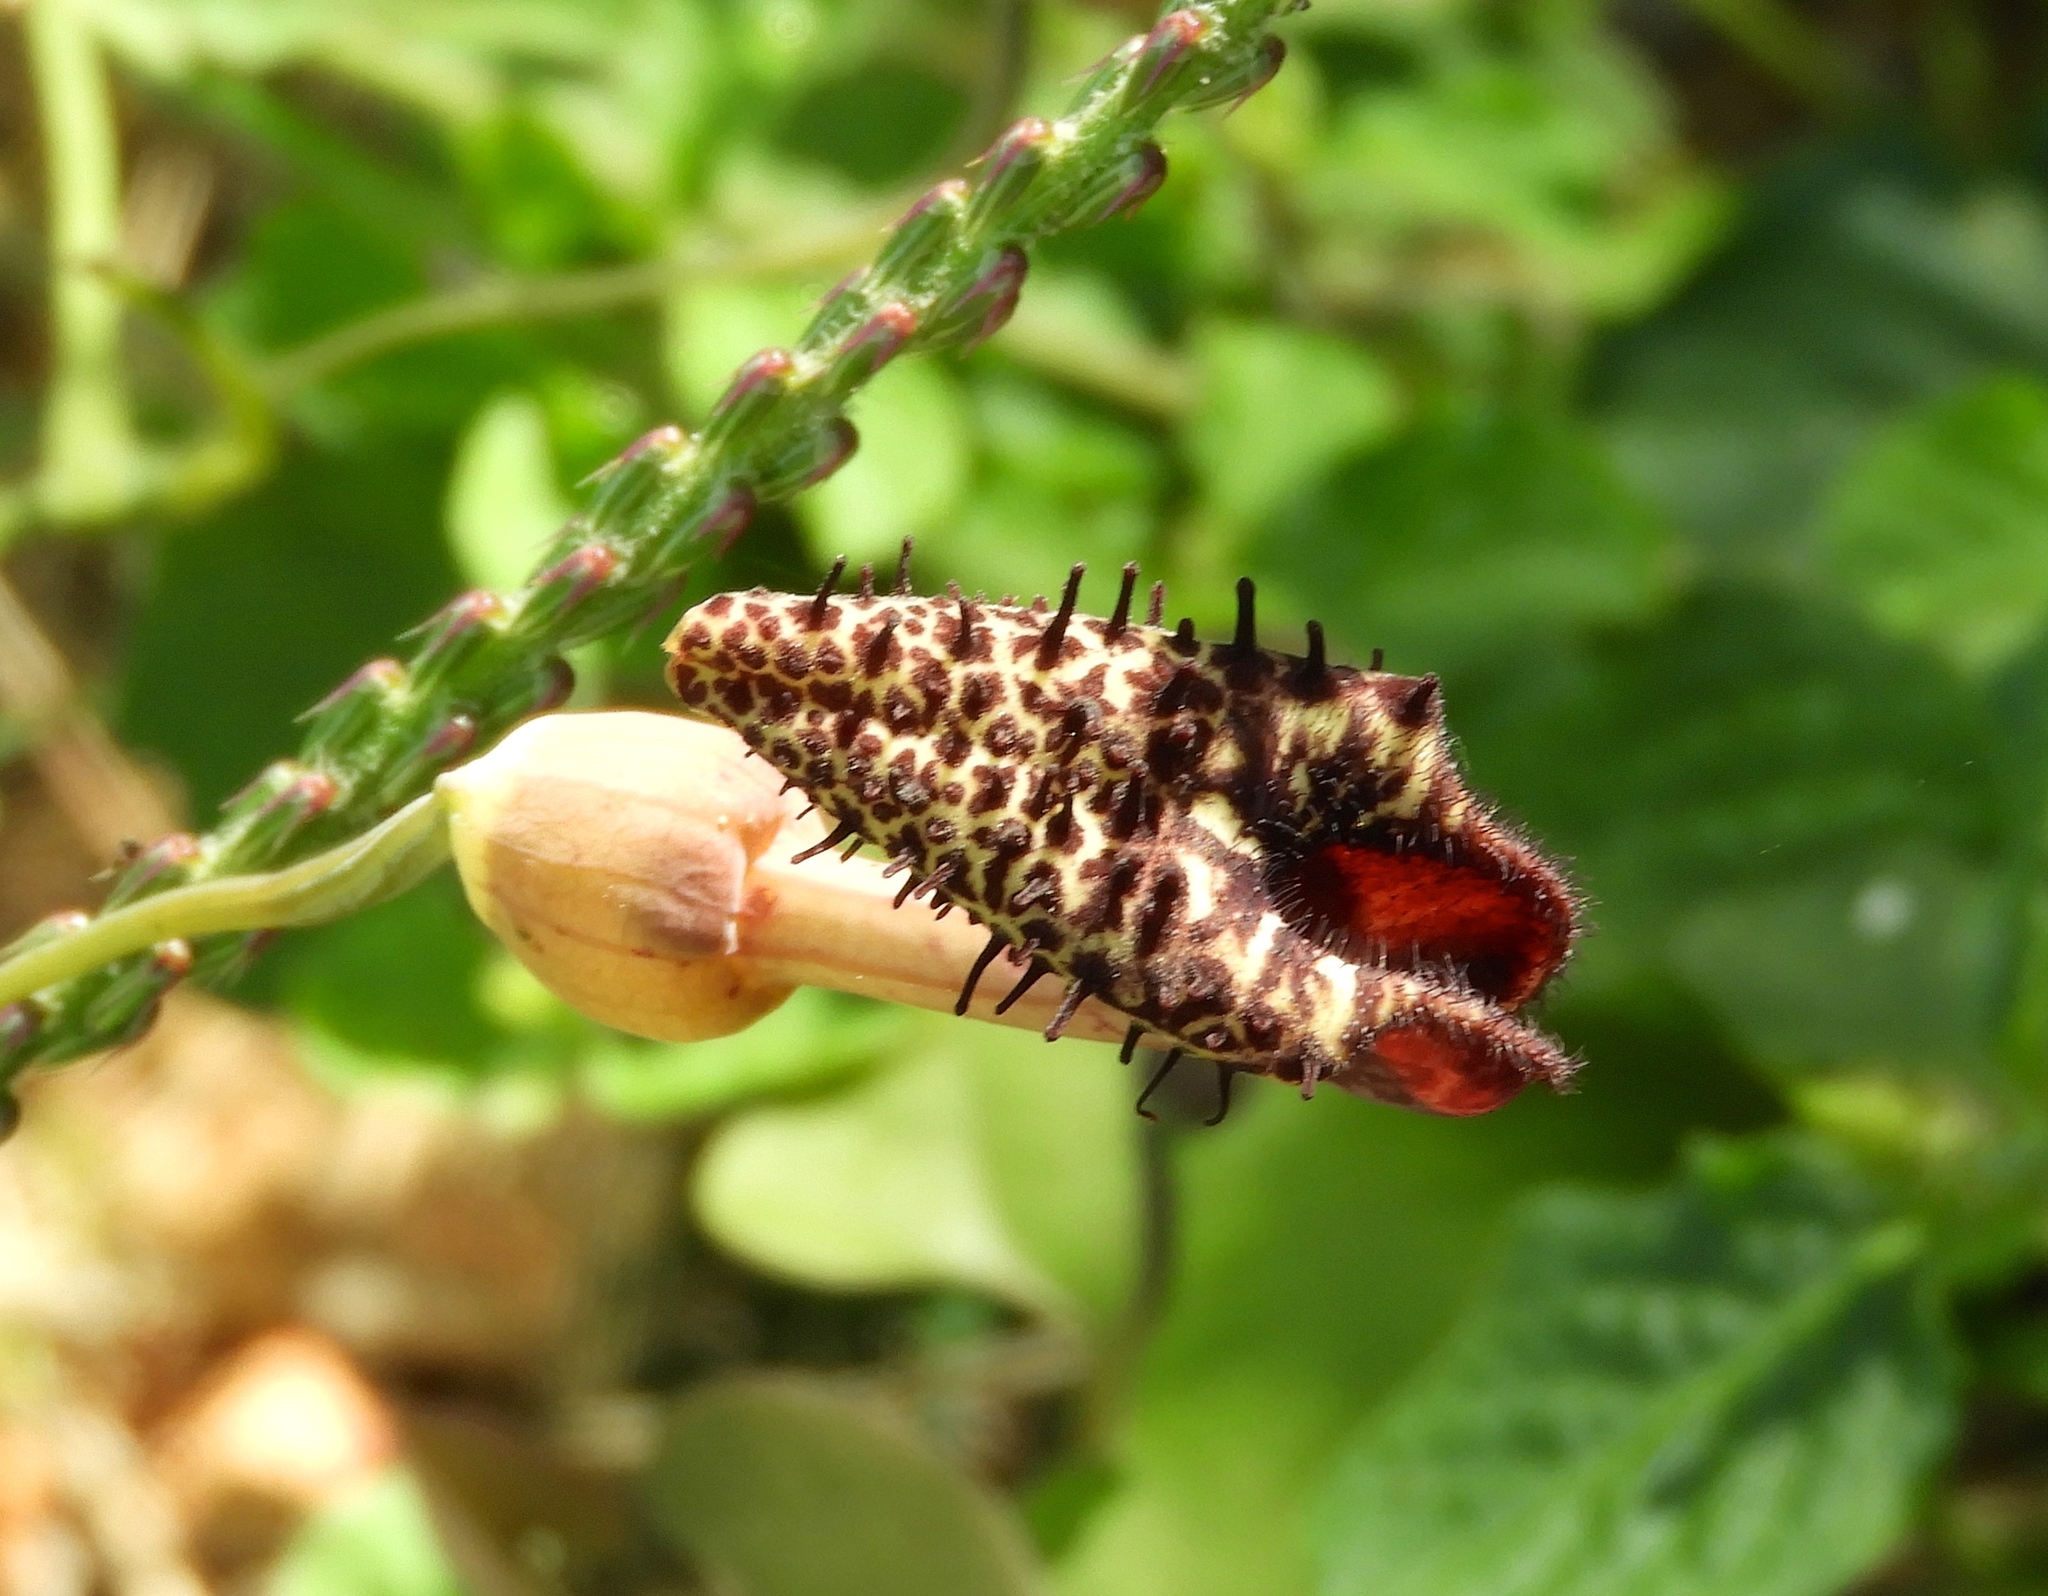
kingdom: Plantae
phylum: Tracheophyta
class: Magnoliopsida
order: Piperales
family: Aristolochiaceae
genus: Aristolochia
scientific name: Aristolochia taliscana
